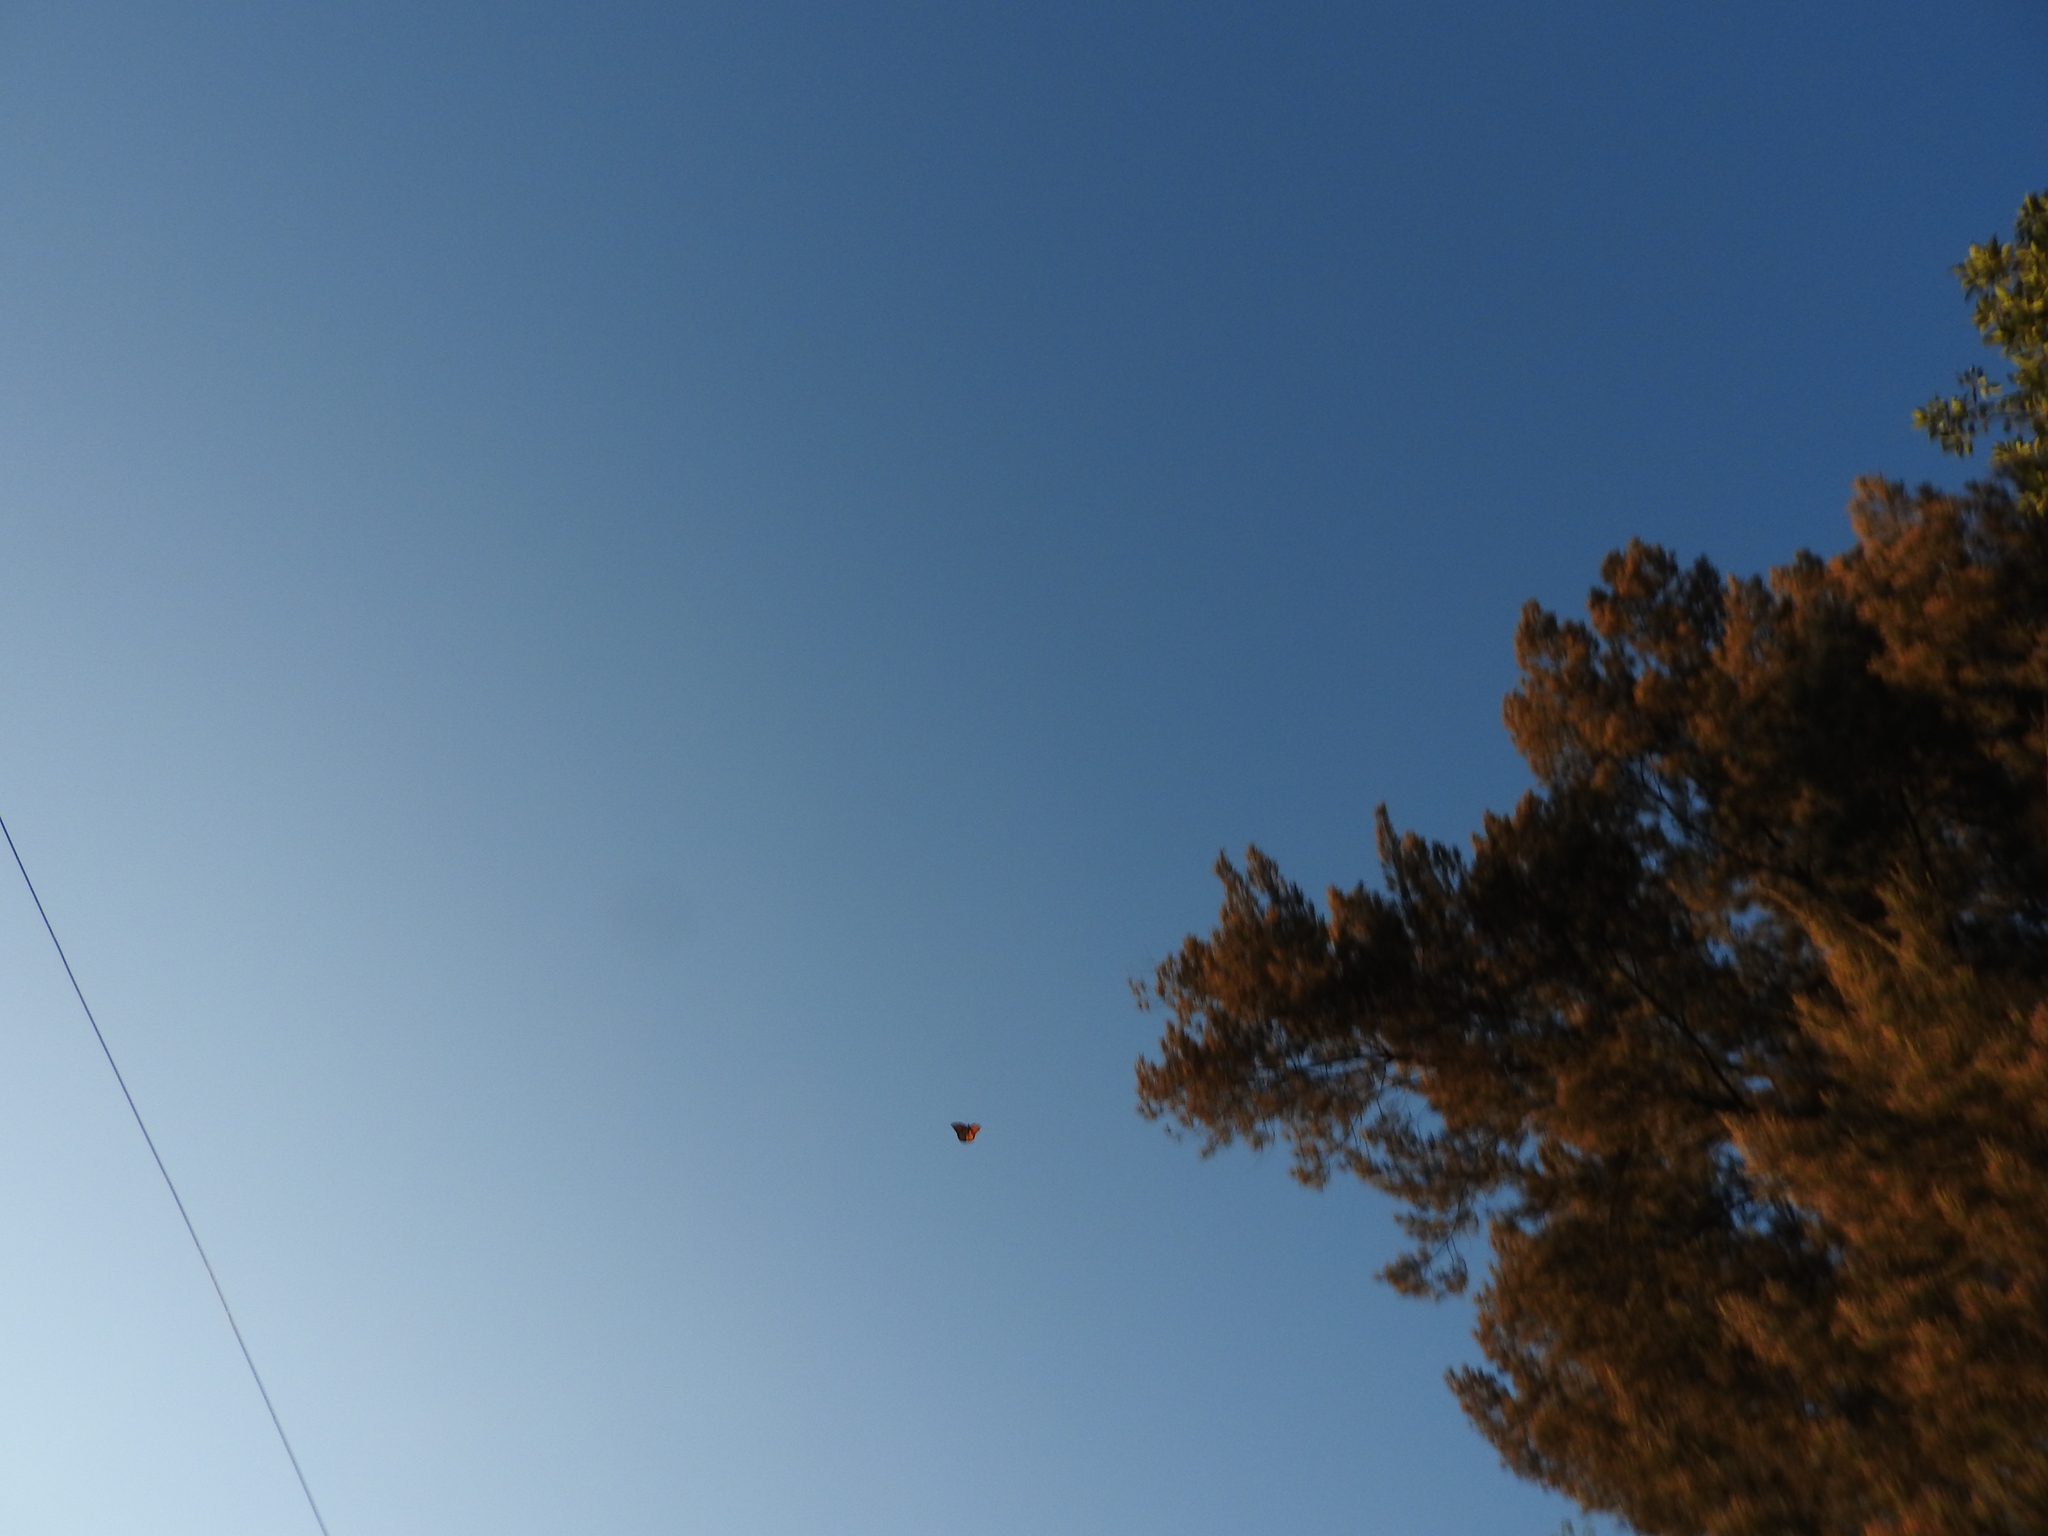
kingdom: Animalia
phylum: Arthropoda
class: Insecta
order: Lepidoptera
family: Nymphalidae
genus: Danaus
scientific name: Danaus plexippus
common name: Monarch
